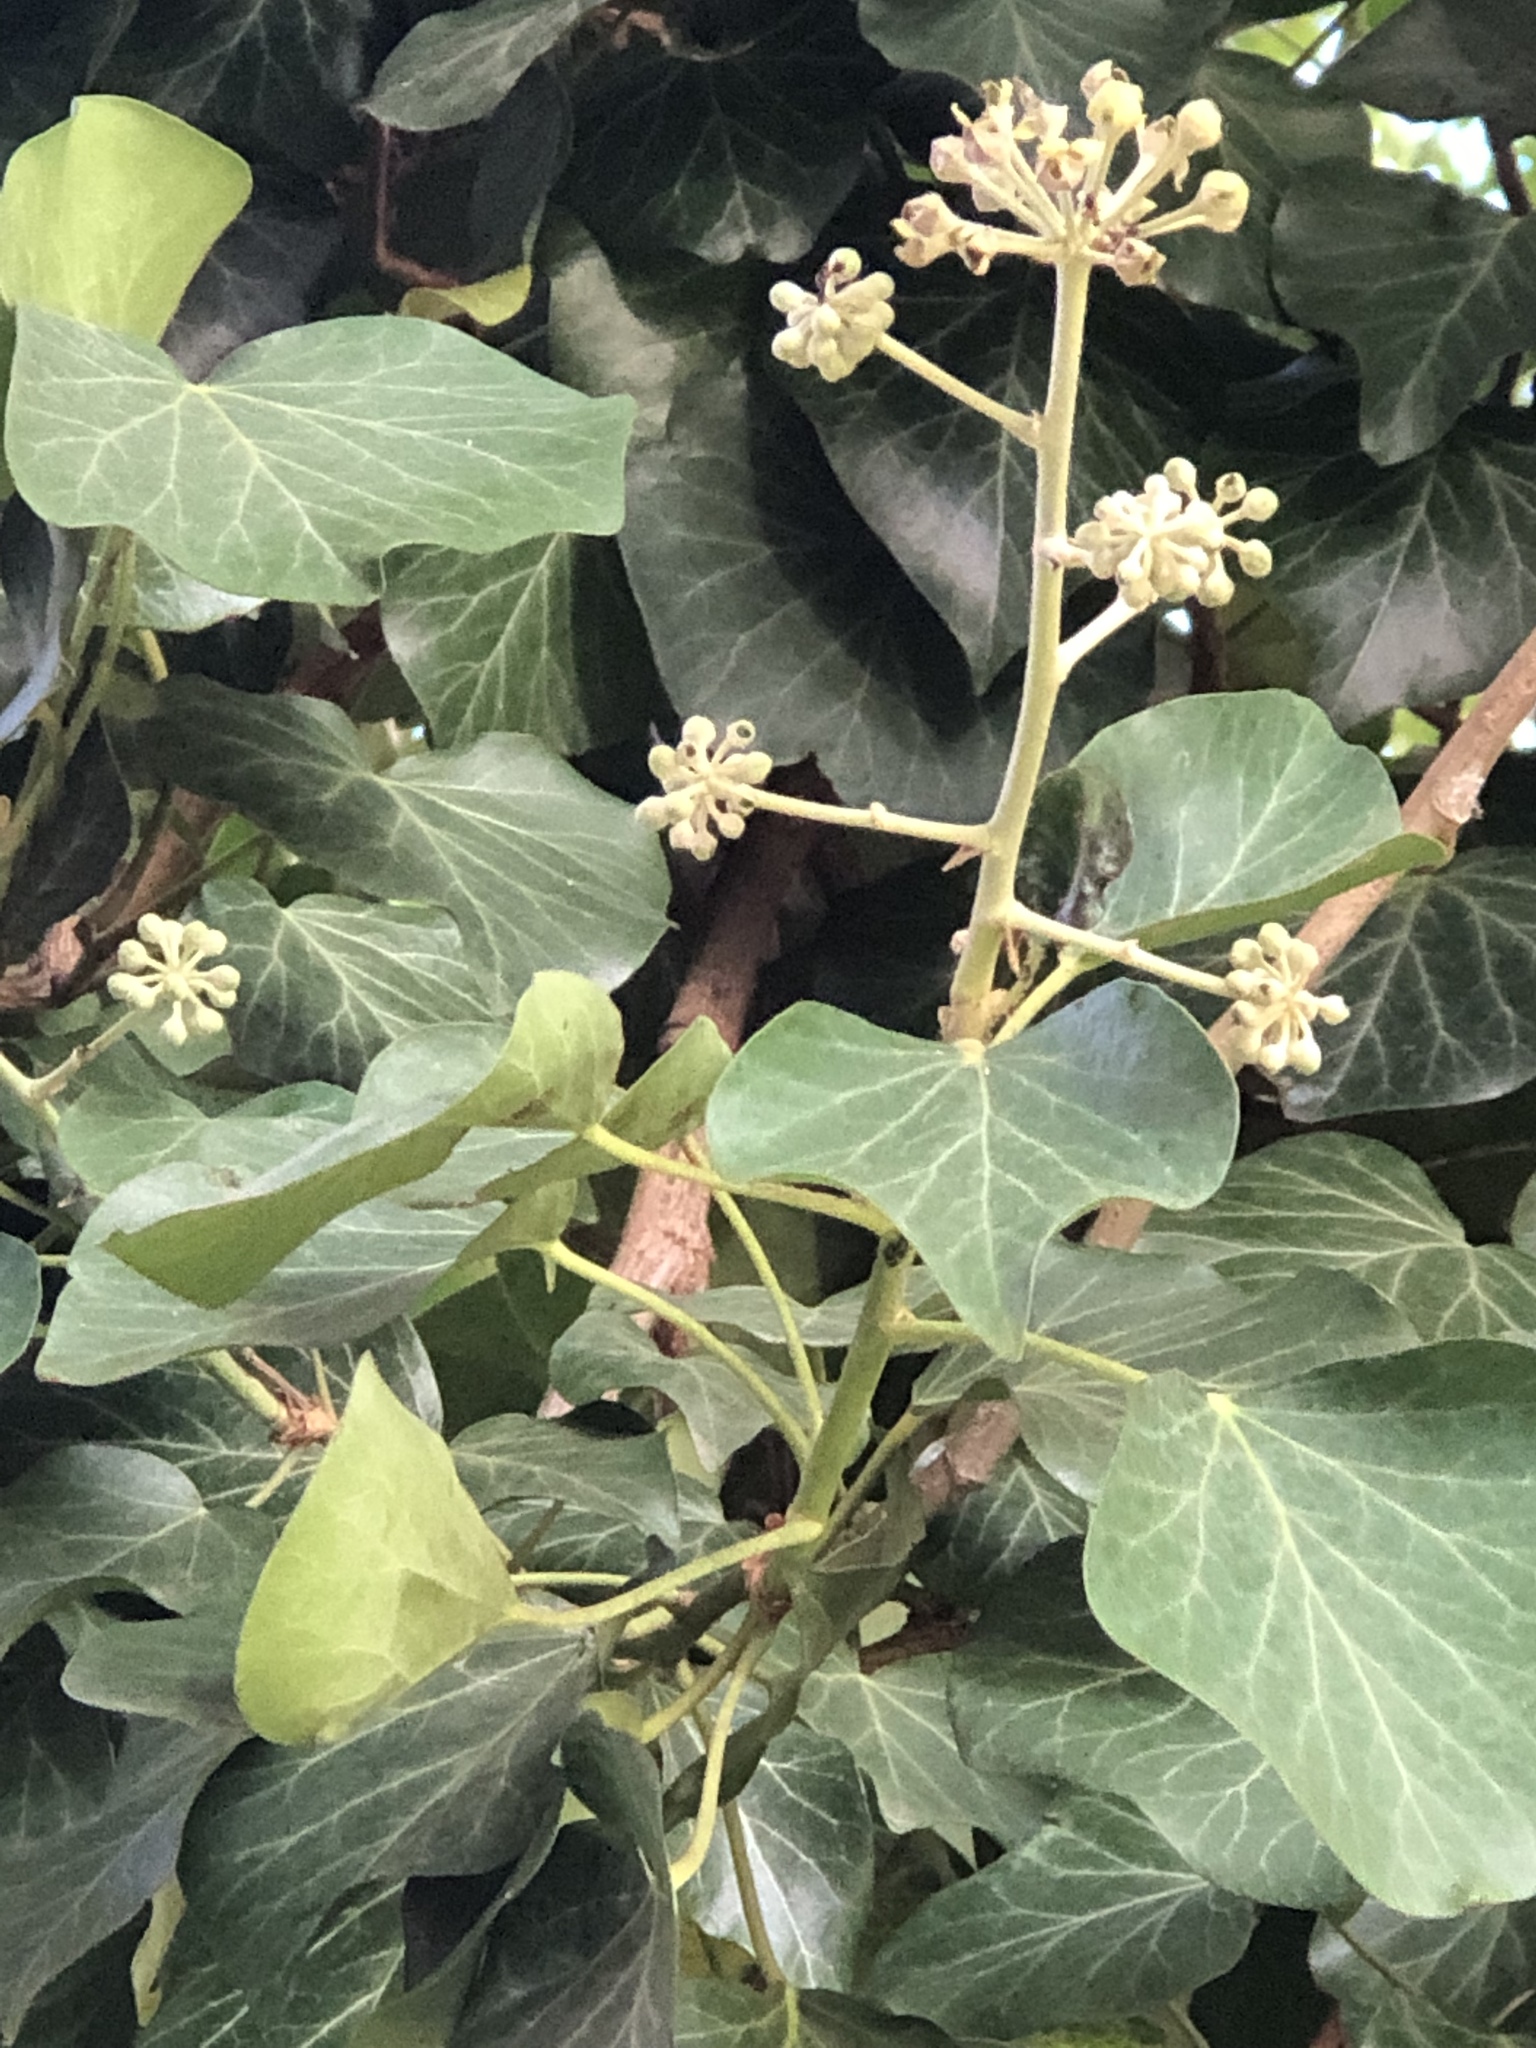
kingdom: Plantae
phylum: Tracheophyta
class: Magnoliopsida
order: Apiales
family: Araliaceae
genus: Hedera
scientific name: Hedera helix
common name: Ivy
